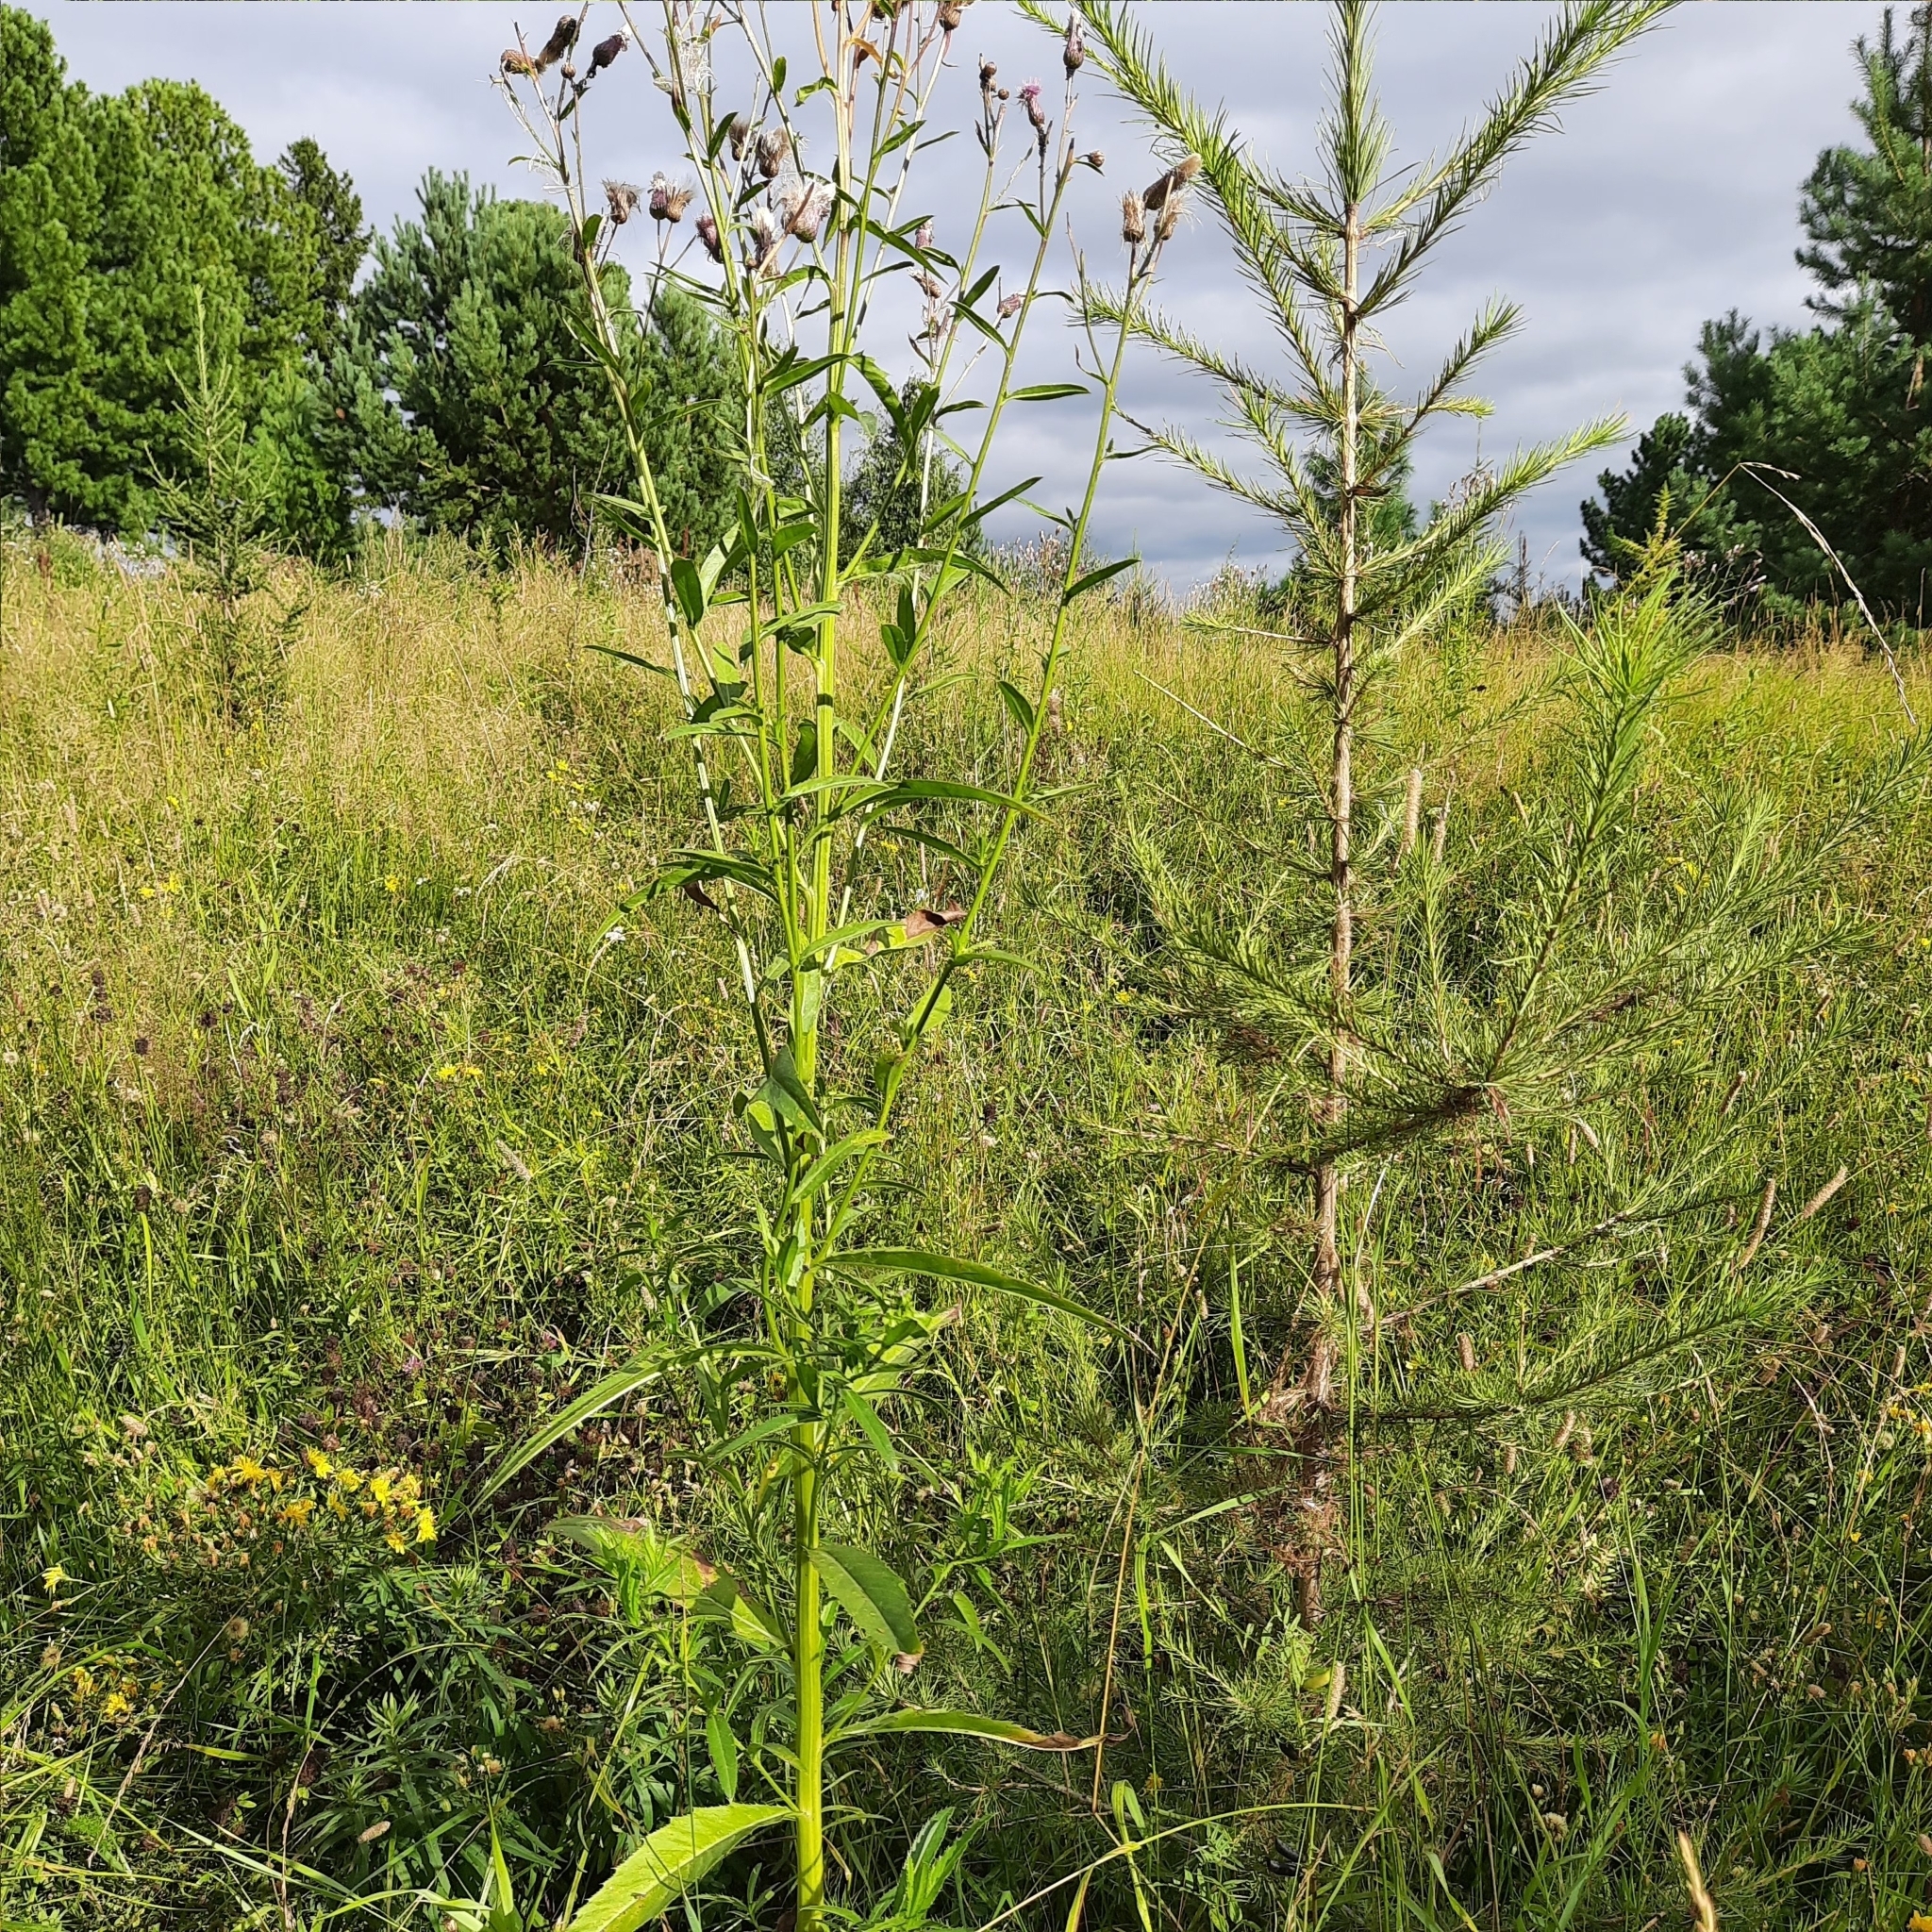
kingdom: Plantae
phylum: Tracheophyta
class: Magnoliopsida
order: Asterales
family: Asteraceae
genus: Cirsium
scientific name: Cirsium arvense
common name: Creeping thistle
